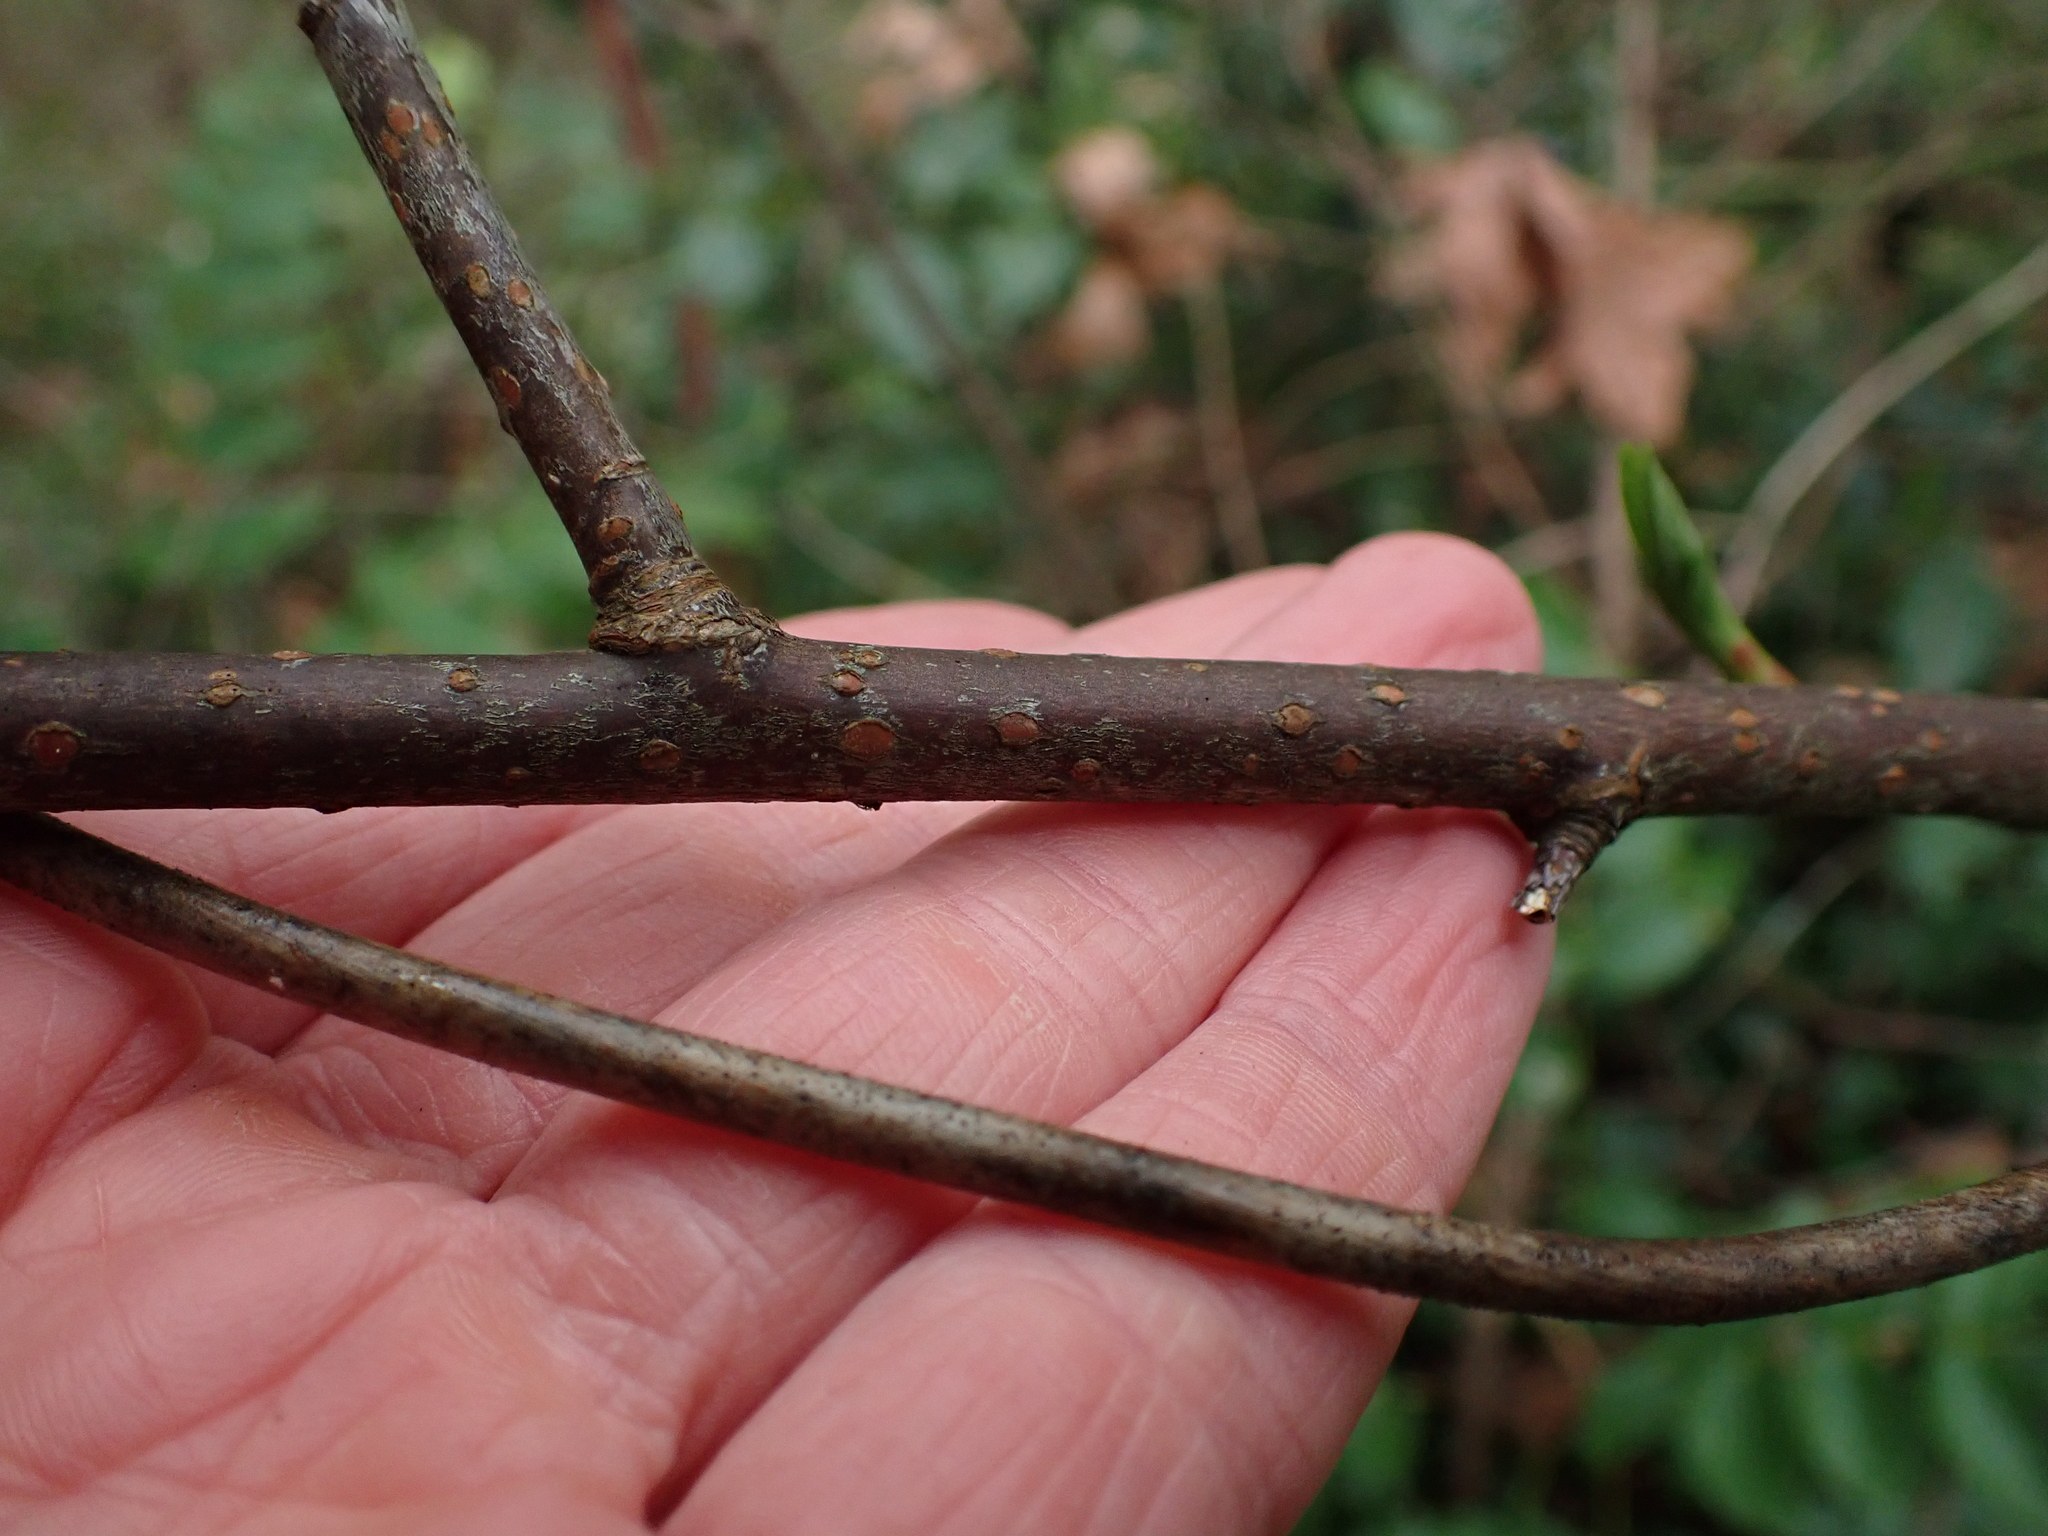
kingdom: Plantae
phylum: Tracheophyta
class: Magnoliopsida
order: Rosales
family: Rosaceae
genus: Oemleria
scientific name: Oemleria cerasiformis
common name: Osoberry
